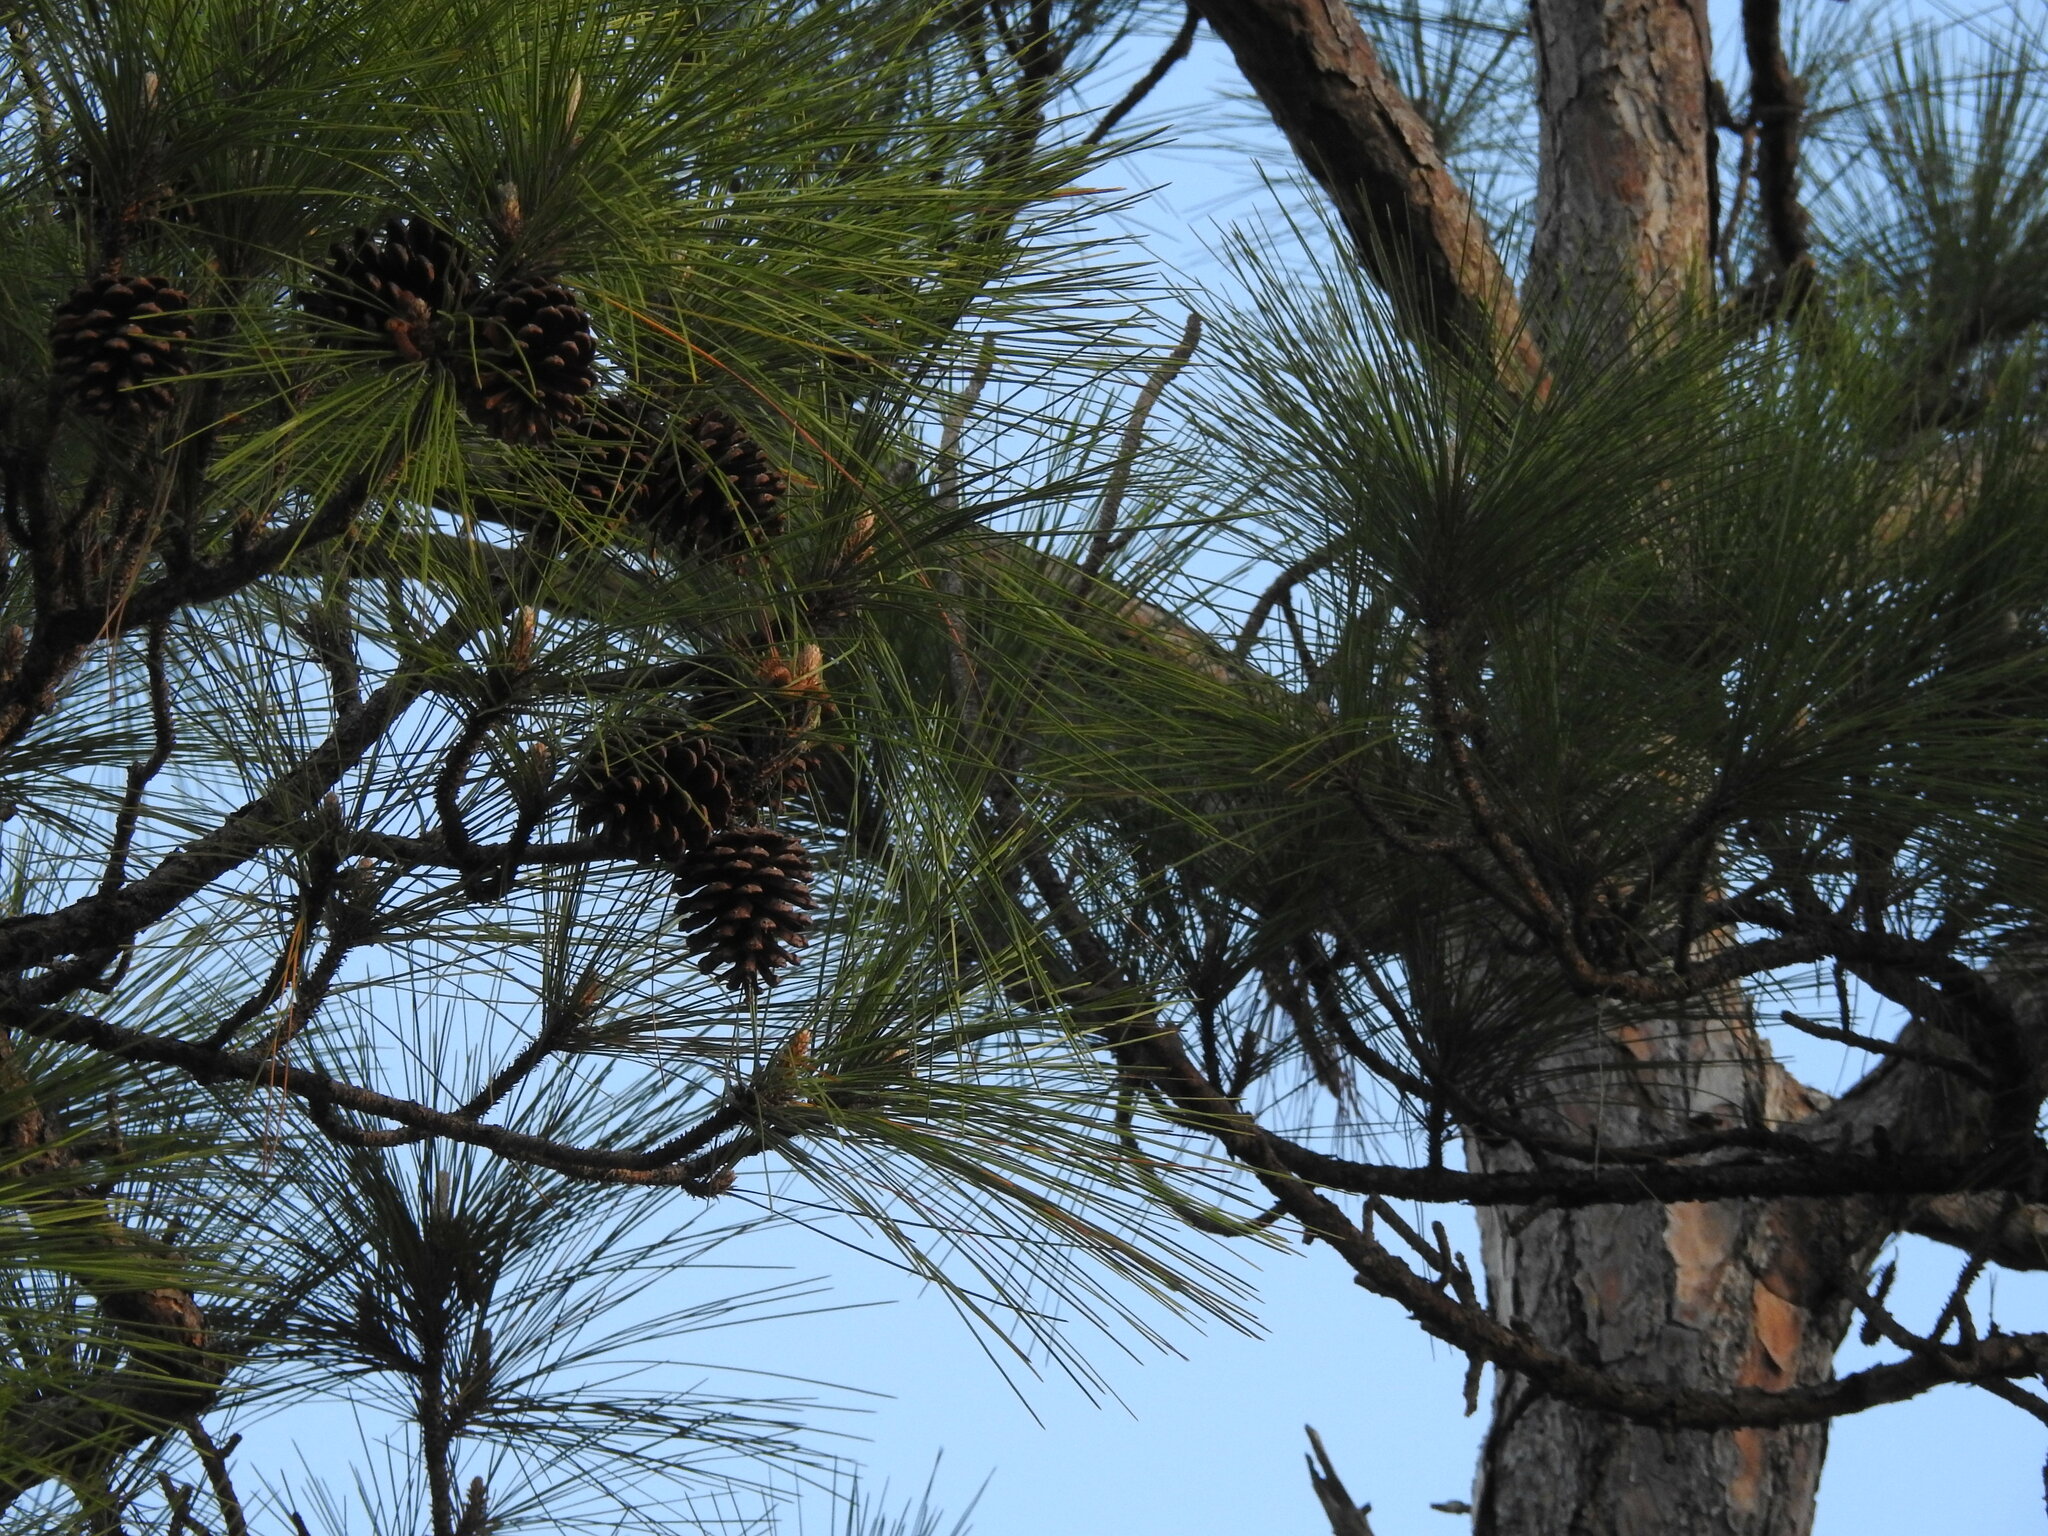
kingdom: Plantae
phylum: Tracheophyta
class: Pinopsida
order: Pinales
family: Pinaceae
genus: Pinus
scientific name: Pinus elliottii
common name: Slash pine
